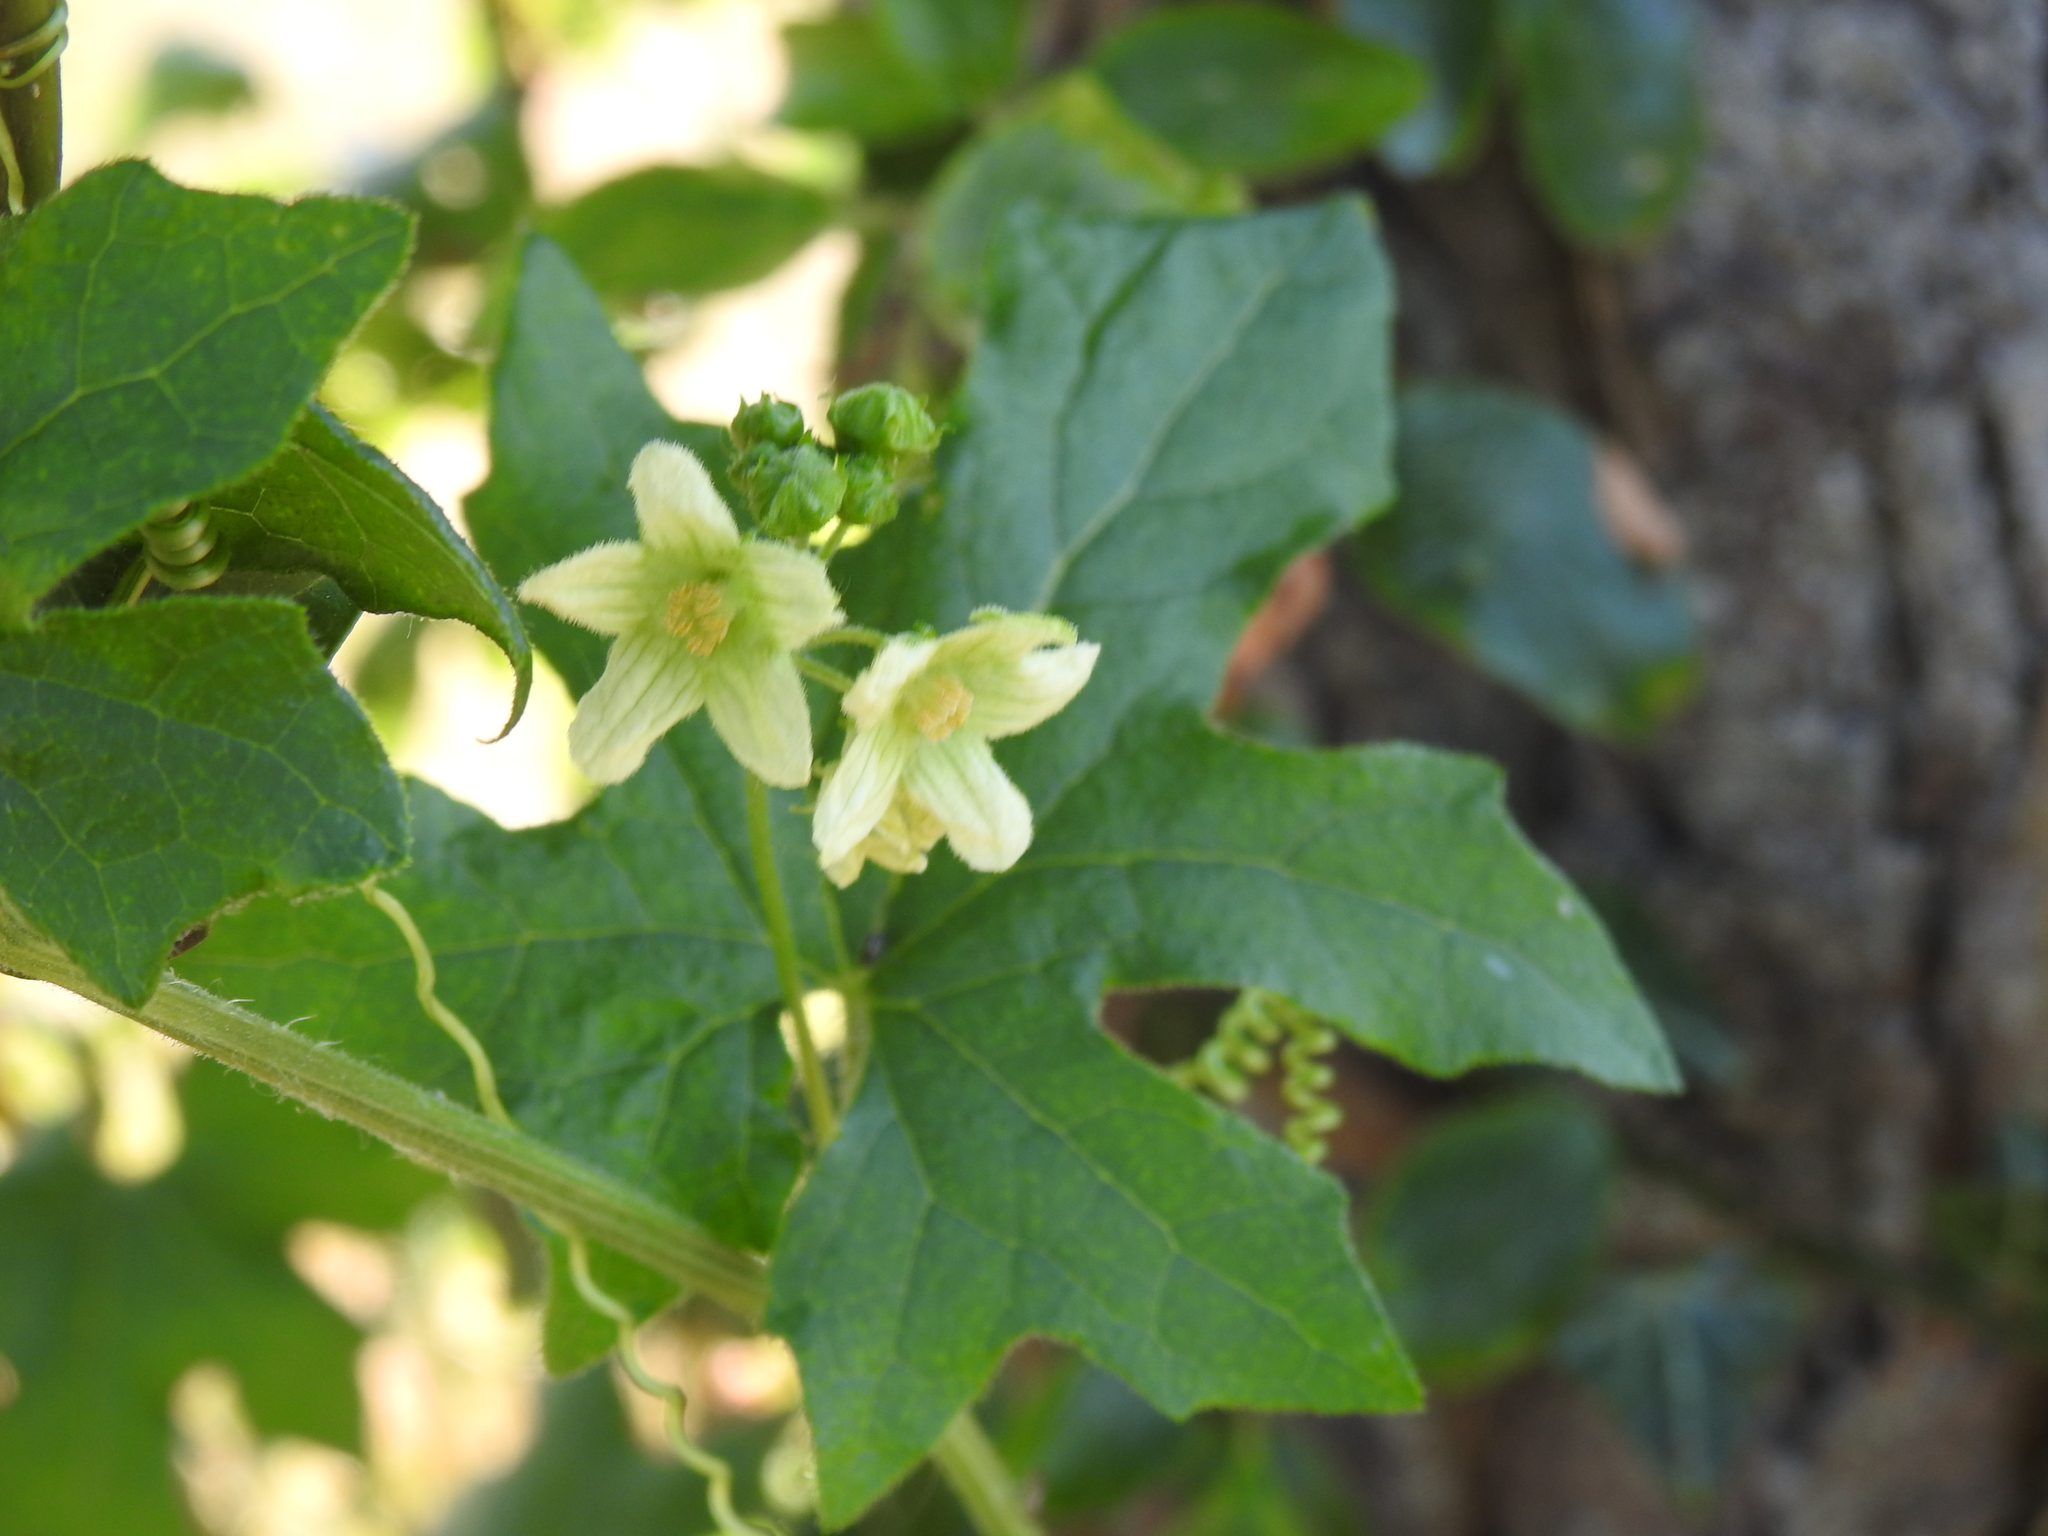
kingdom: Plantae
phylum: Tracheophyta
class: Magnoliopsida
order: Cucurbitales
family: Cucurbitaceae
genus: Bryonia
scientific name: Bryonia cretica
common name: Cretan bryony
